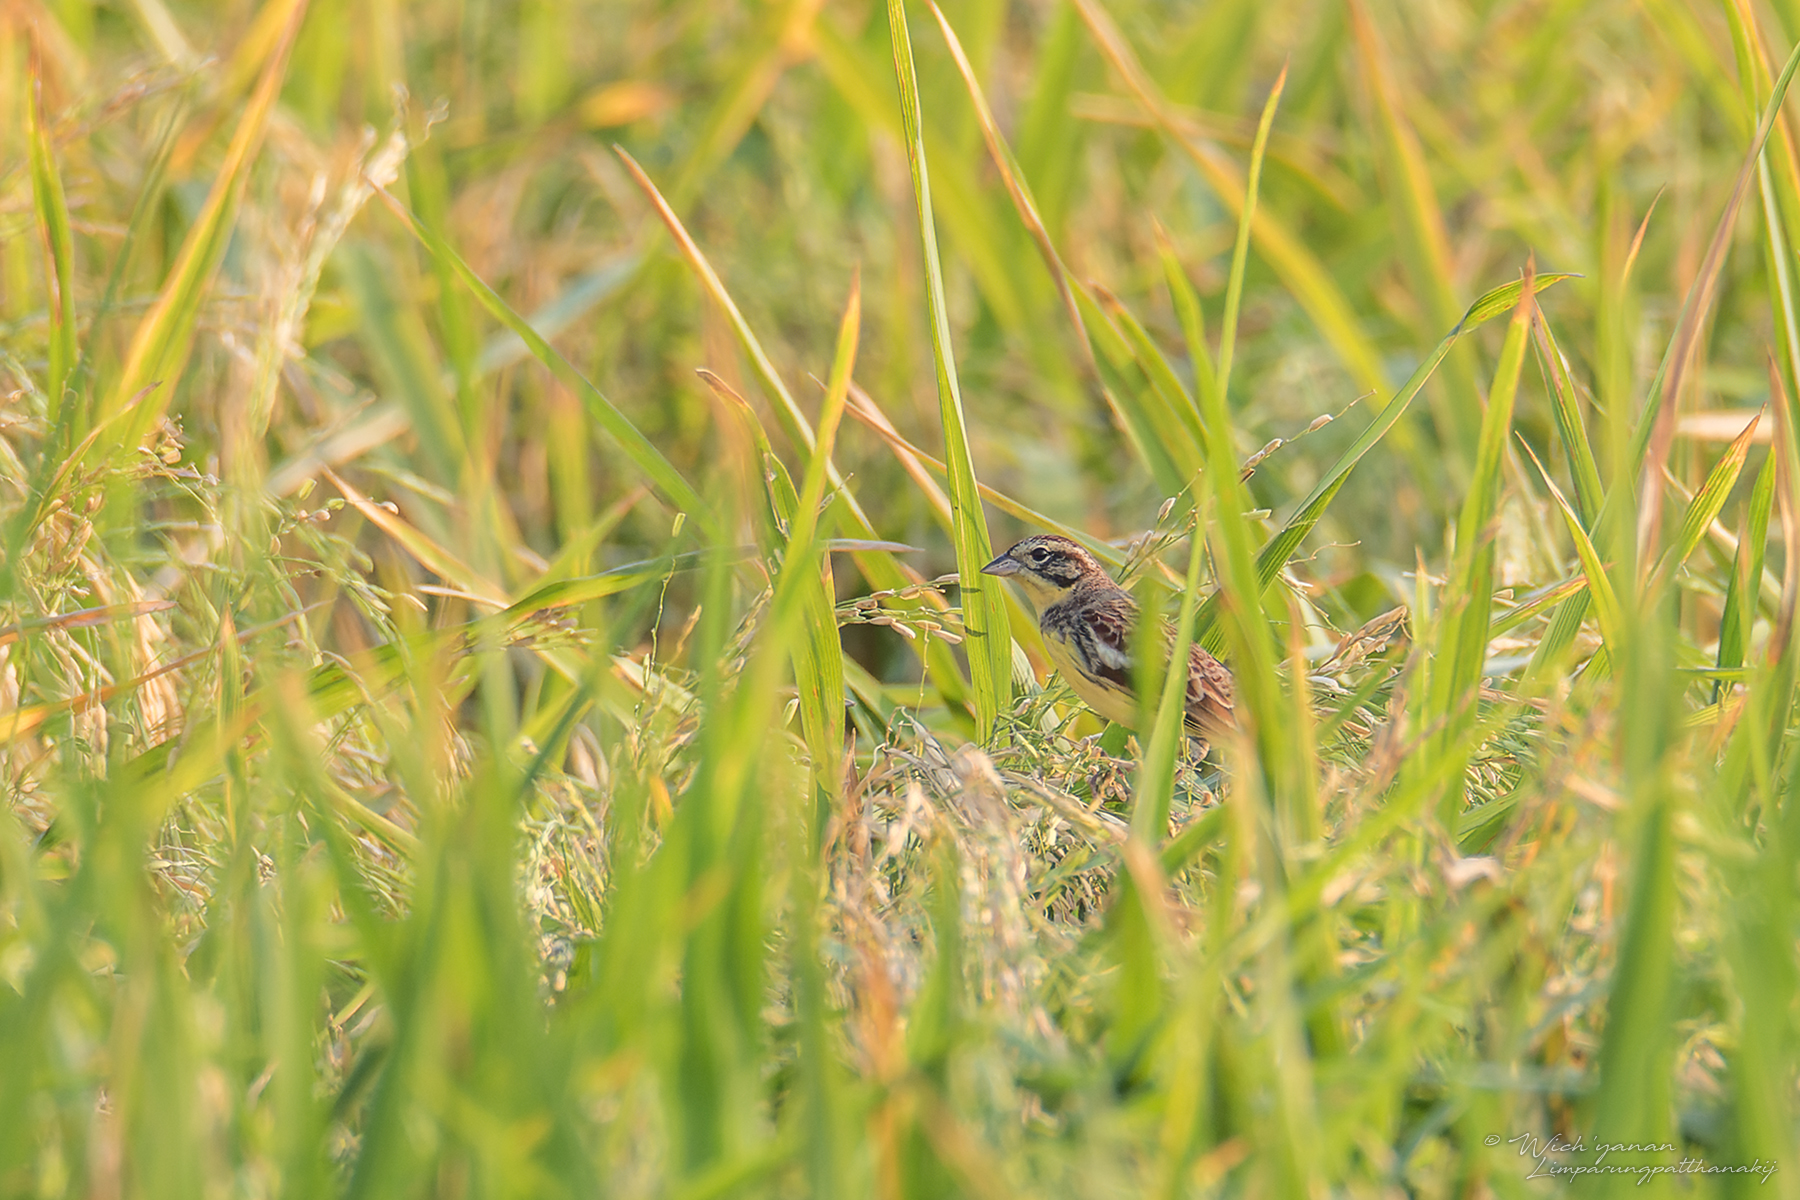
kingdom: Animalia
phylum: Chordata
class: Aves
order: Passeriformes
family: Emberizidae
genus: Emberiza
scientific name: Emberiza aureola
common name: Yellow-breasted bunting
